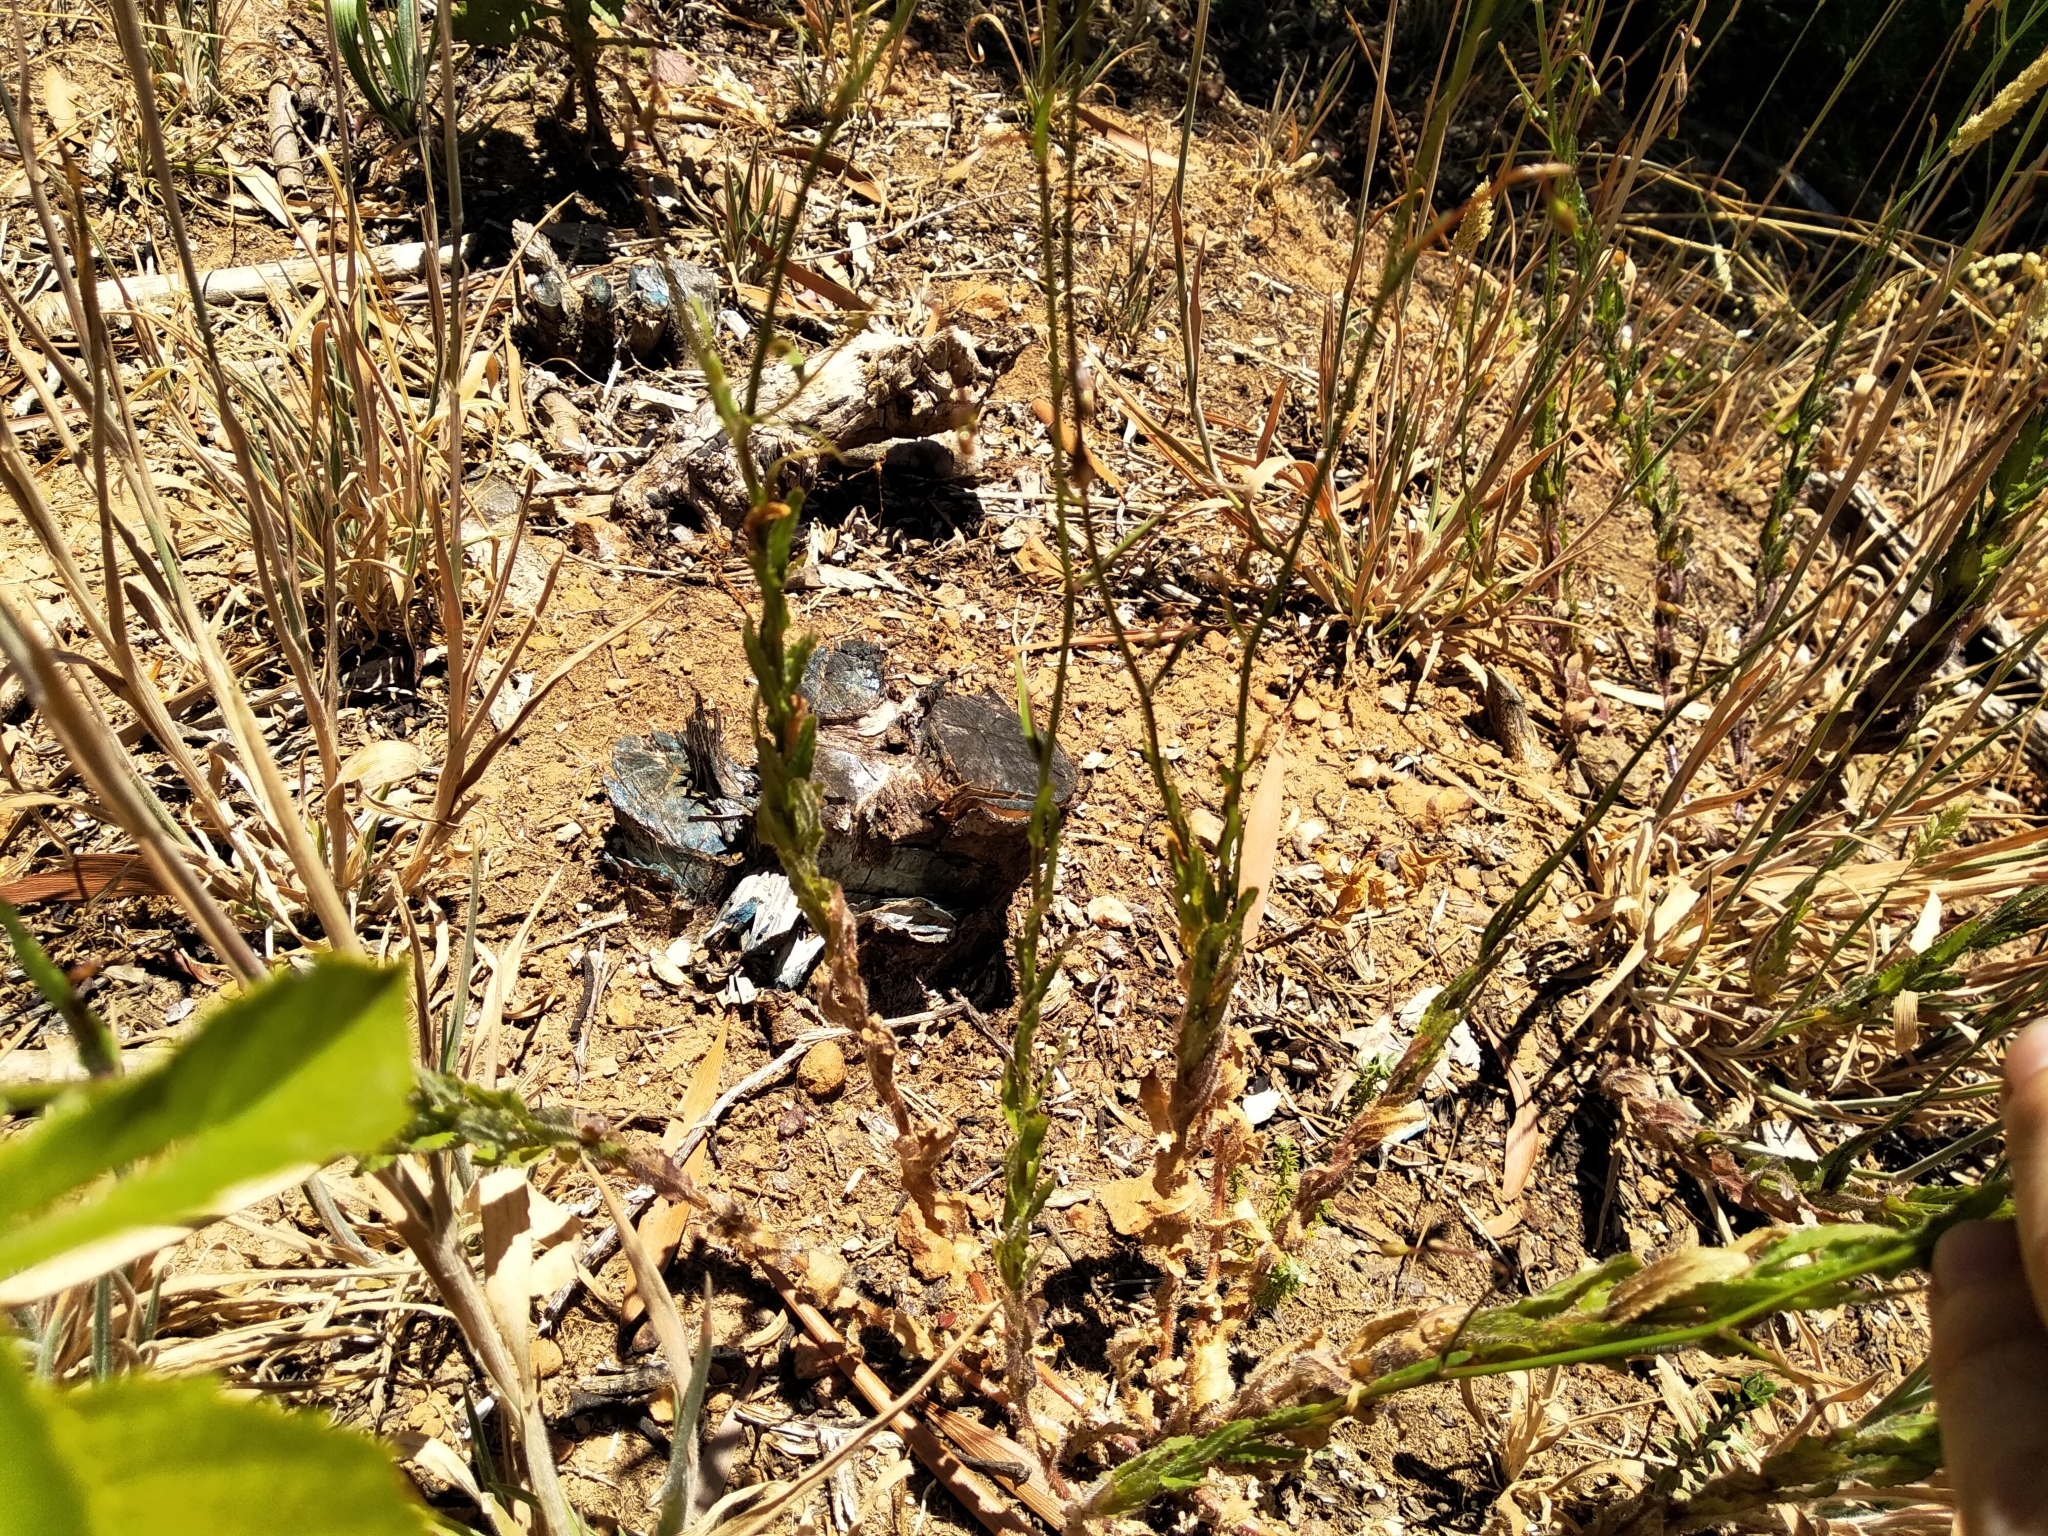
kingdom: Plantae
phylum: Tracheophyta
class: Magnoliopsida
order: Asterales
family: Campanulaceae
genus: Wahlenbergia
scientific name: Wahlenbergia obovata
